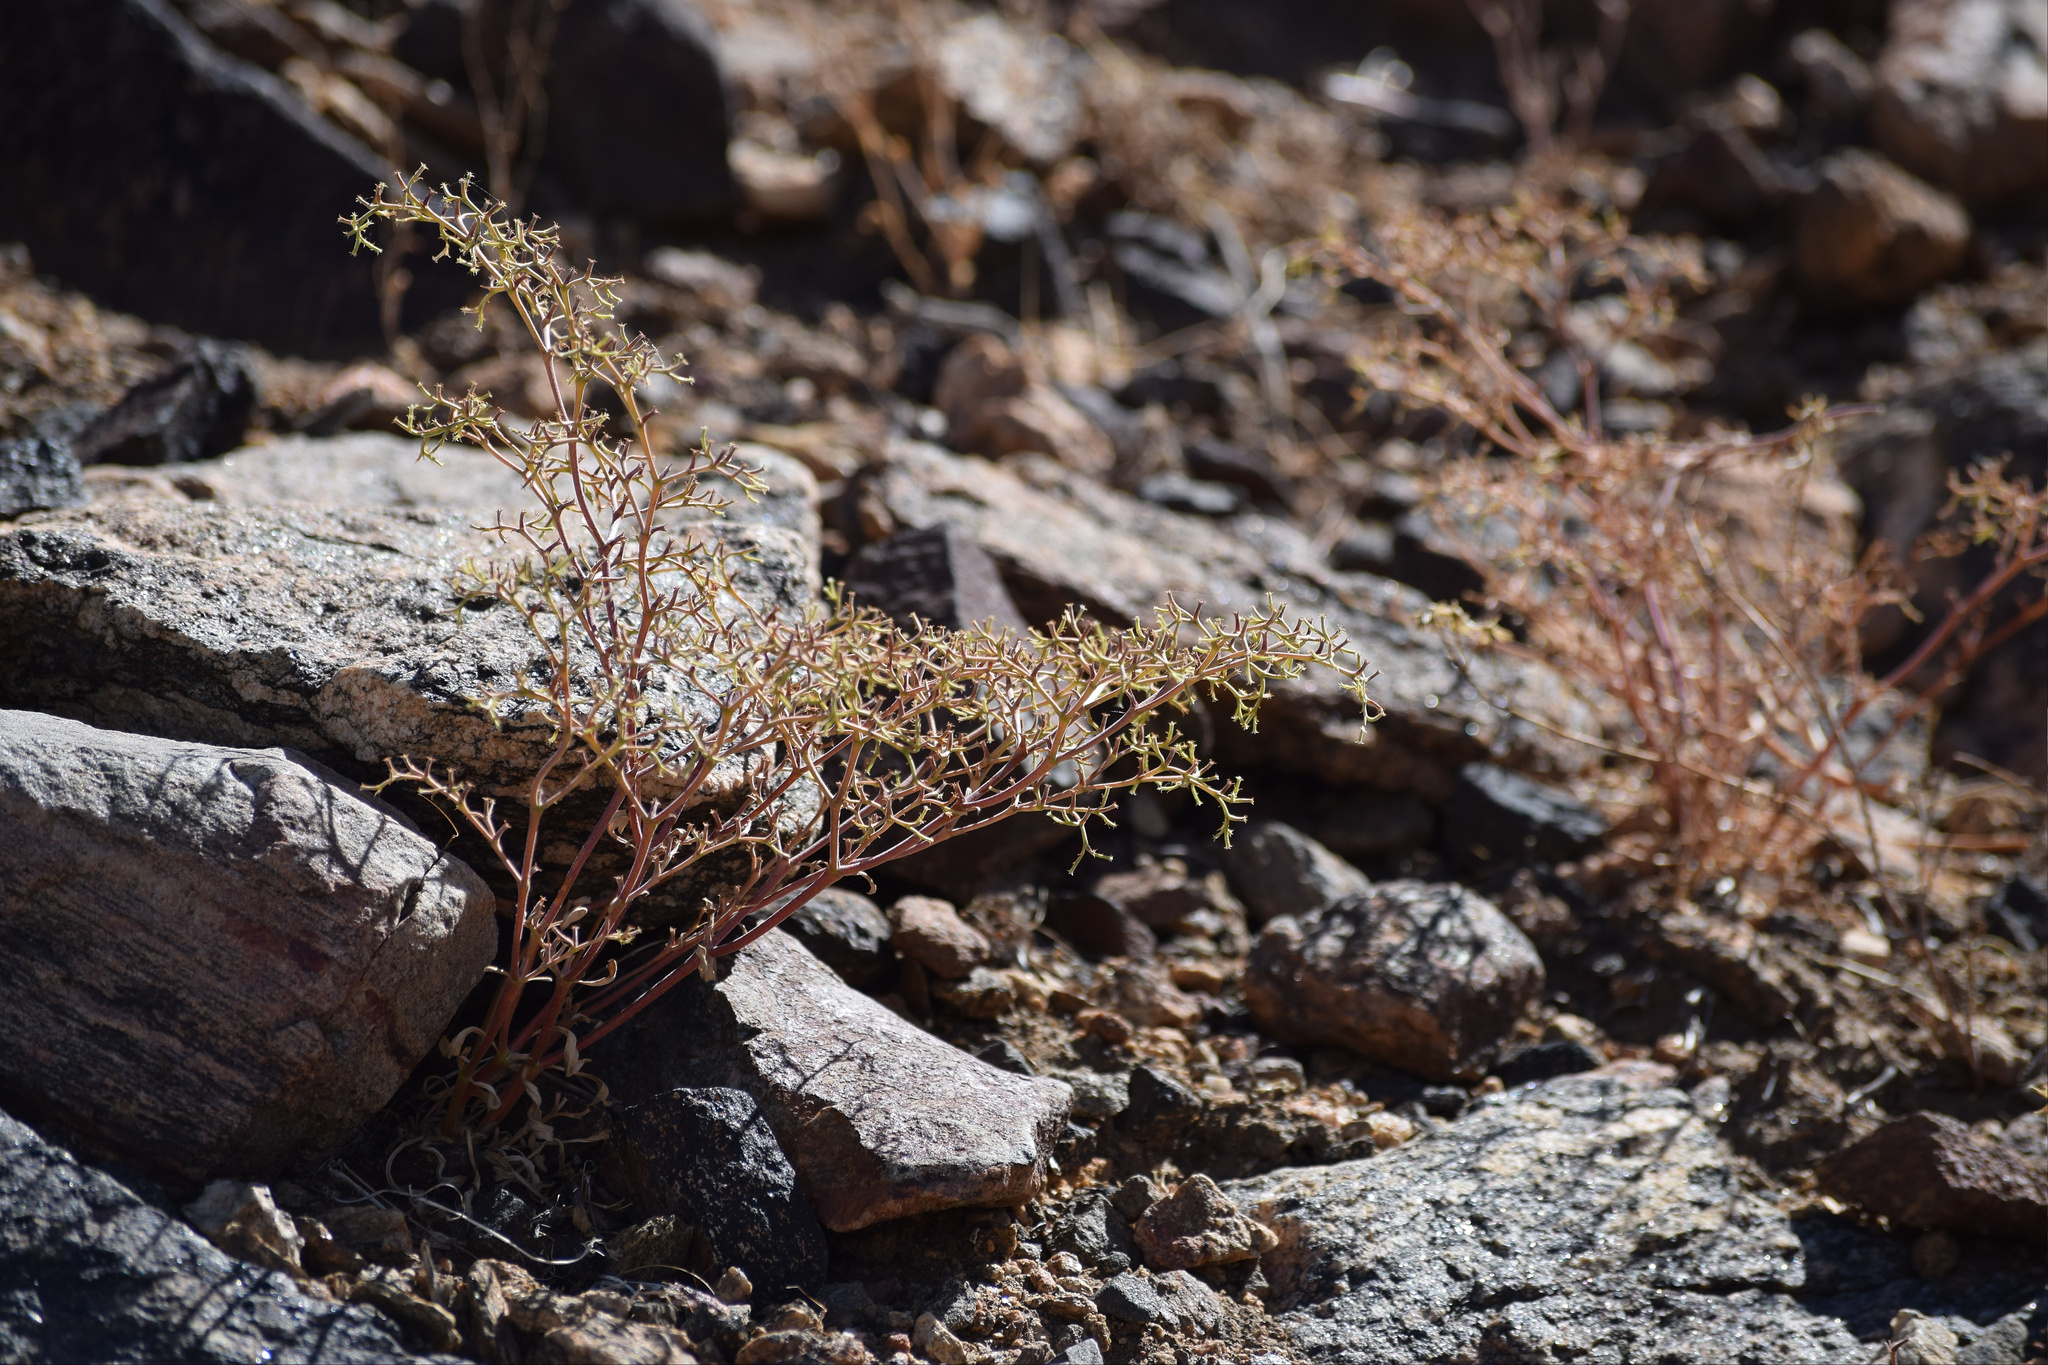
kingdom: Plantae
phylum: Tracheophyta
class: Magnoliopsida
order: Caryophyllales
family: Polygonaceae
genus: Chorizanthe
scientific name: Chorizanthe brevicornu
